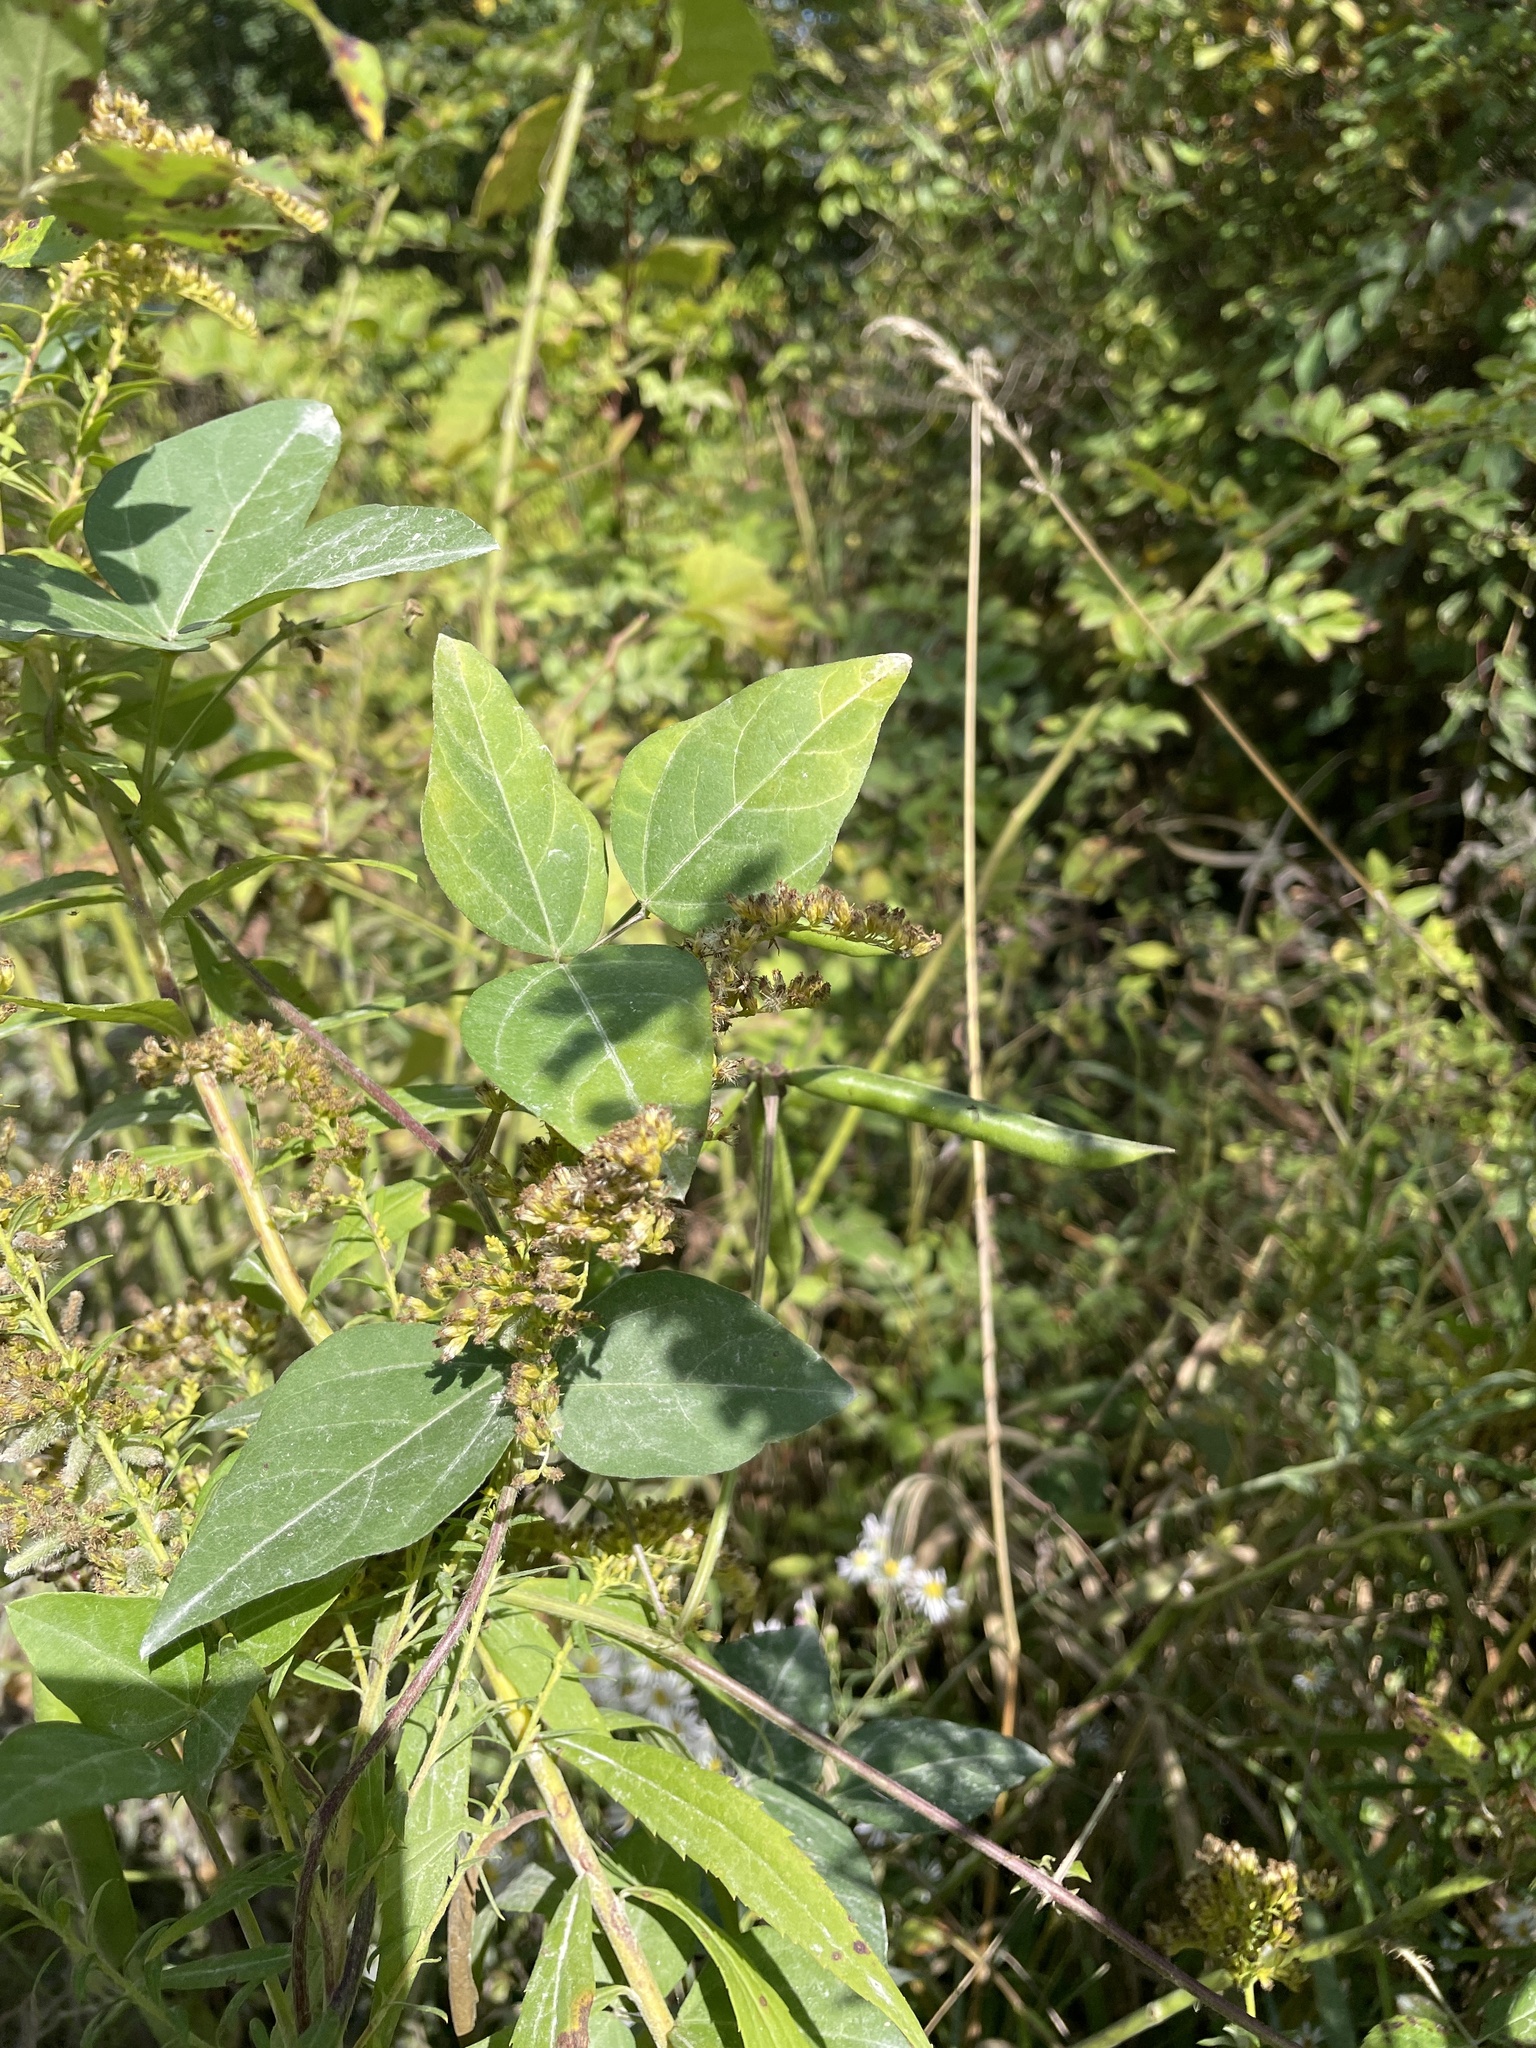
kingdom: Plantae
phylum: Tracheophyta
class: Magnoliopsida
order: Fabales
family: Fabaceae
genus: Strophostyles
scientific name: Strophostyles helvola
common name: Trailing wild bean
